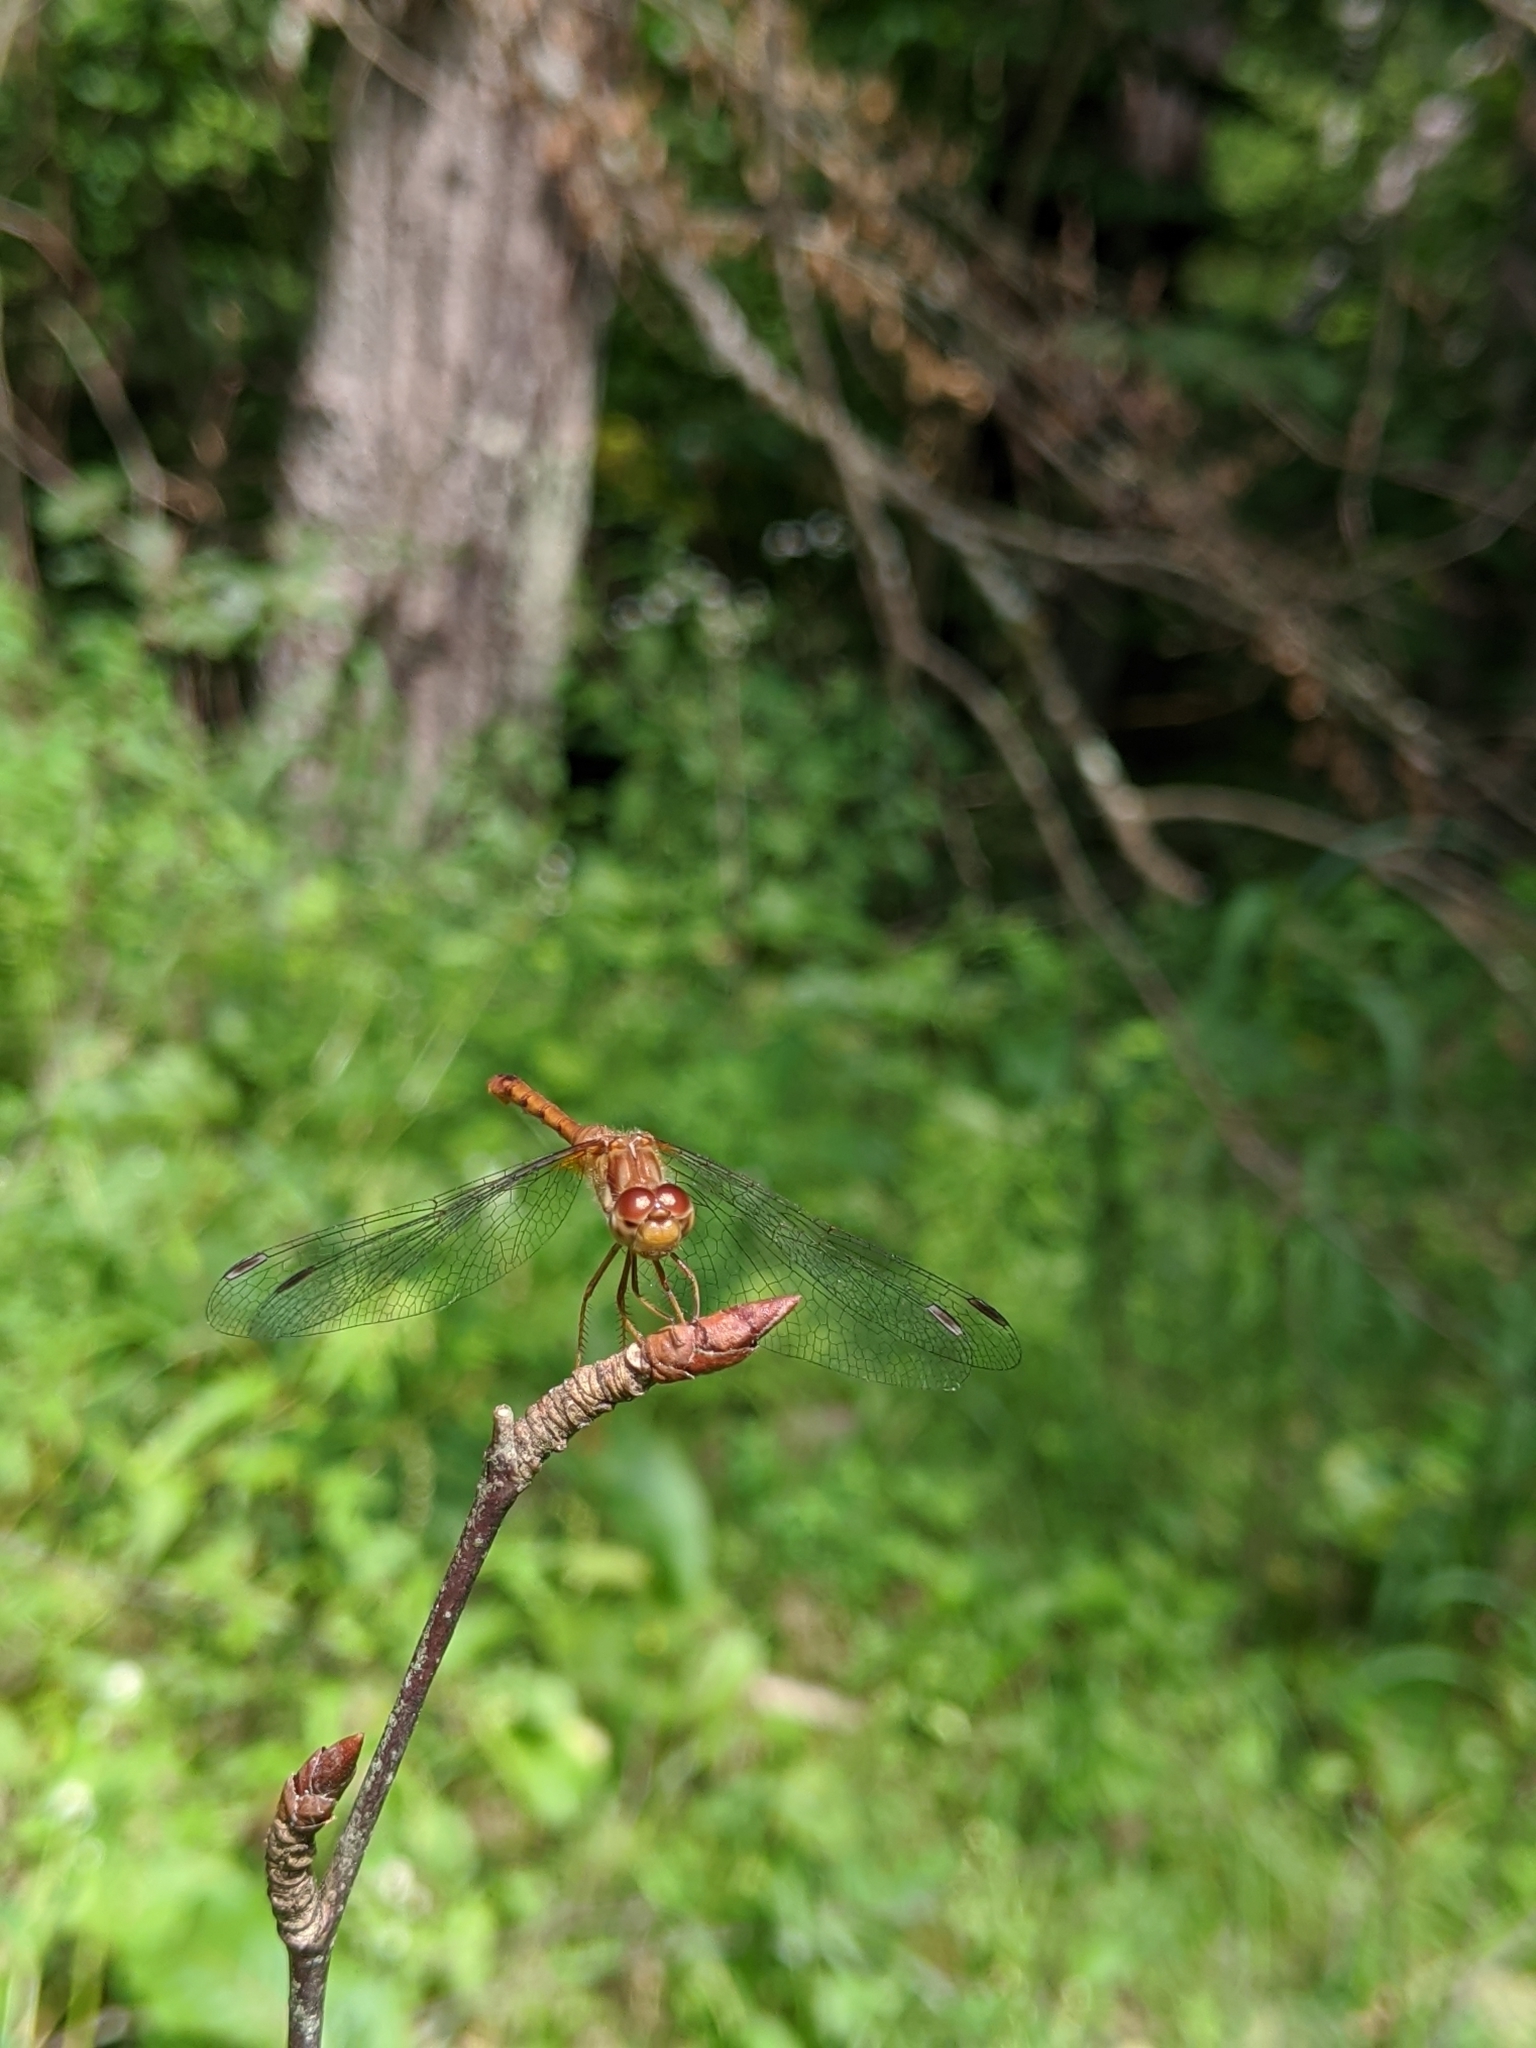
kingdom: Animalia
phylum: Arthropoda
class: Insecta
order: Odonata
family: Libellulidae
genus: Sympetrum
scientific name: Sympetrum vicinum
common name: Autumn meadowhawk
